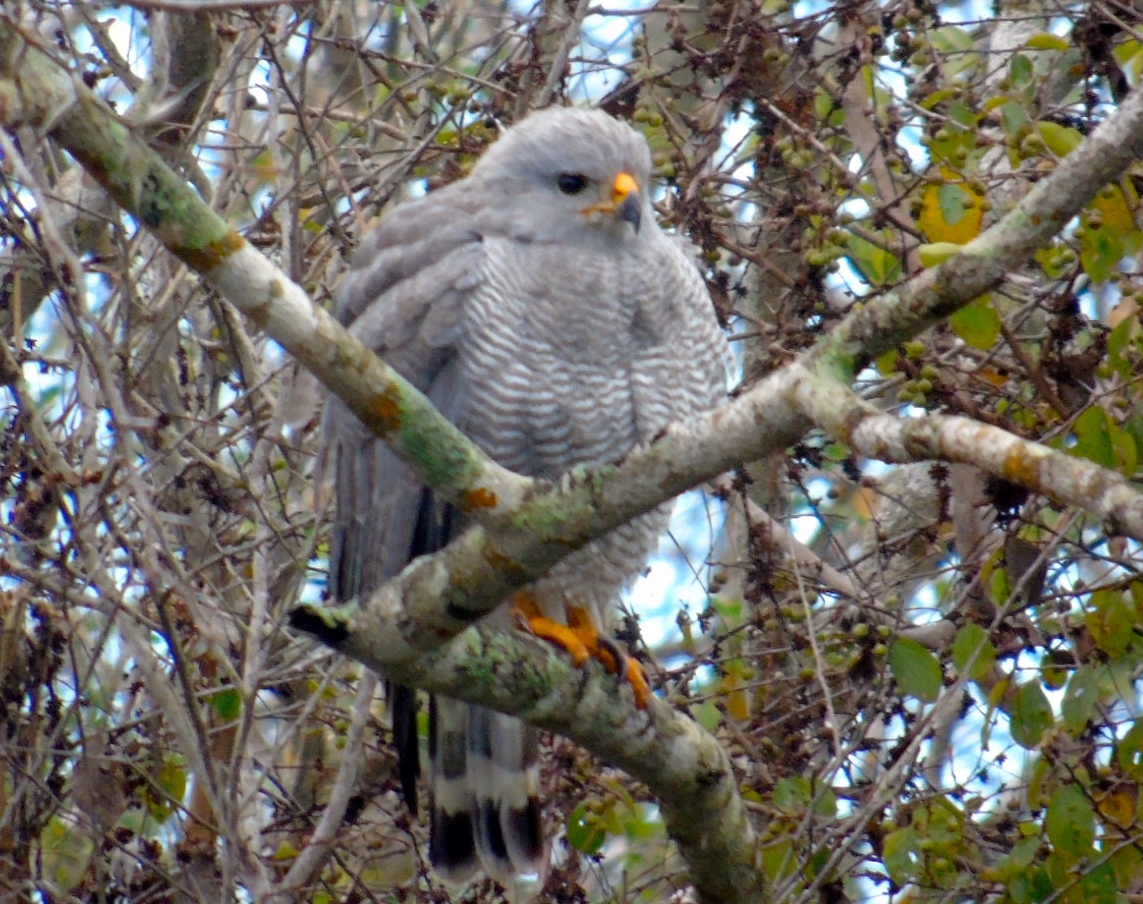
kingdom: Animalia
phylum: Chordata
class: Aves
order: Accipitriformes
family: Accipitridae
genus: Buteo
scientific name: Buteo nitidus
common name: Grey-lined hawk
